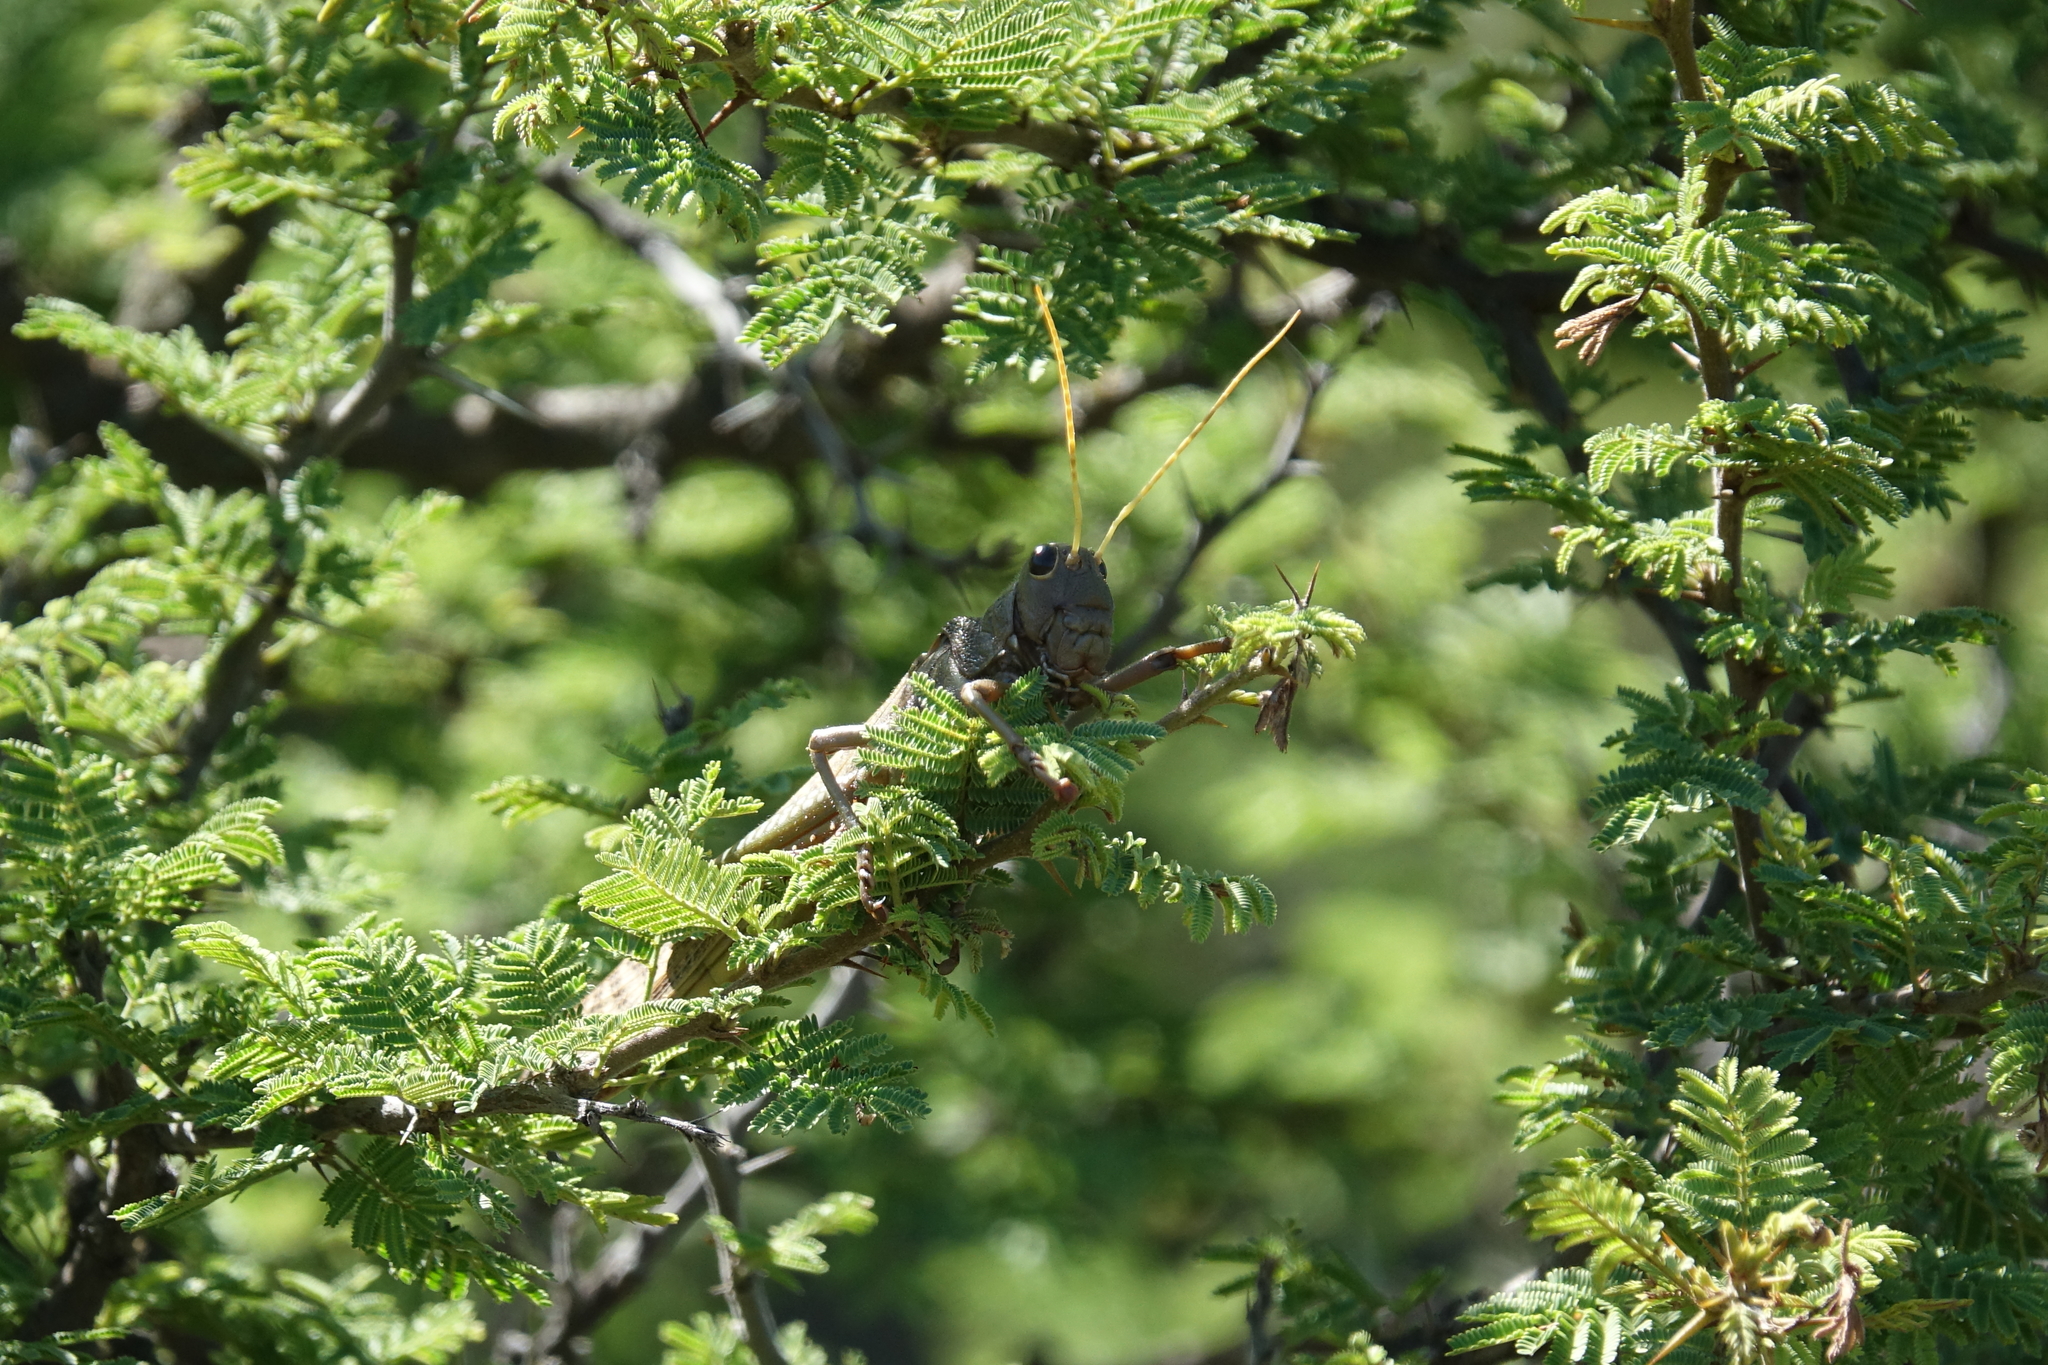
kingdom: Animalia
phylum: Arthropoda
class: Insecta
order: Orthoptera
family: Romaleidae
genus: Tropidacris
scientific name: Tropidacris collaris
